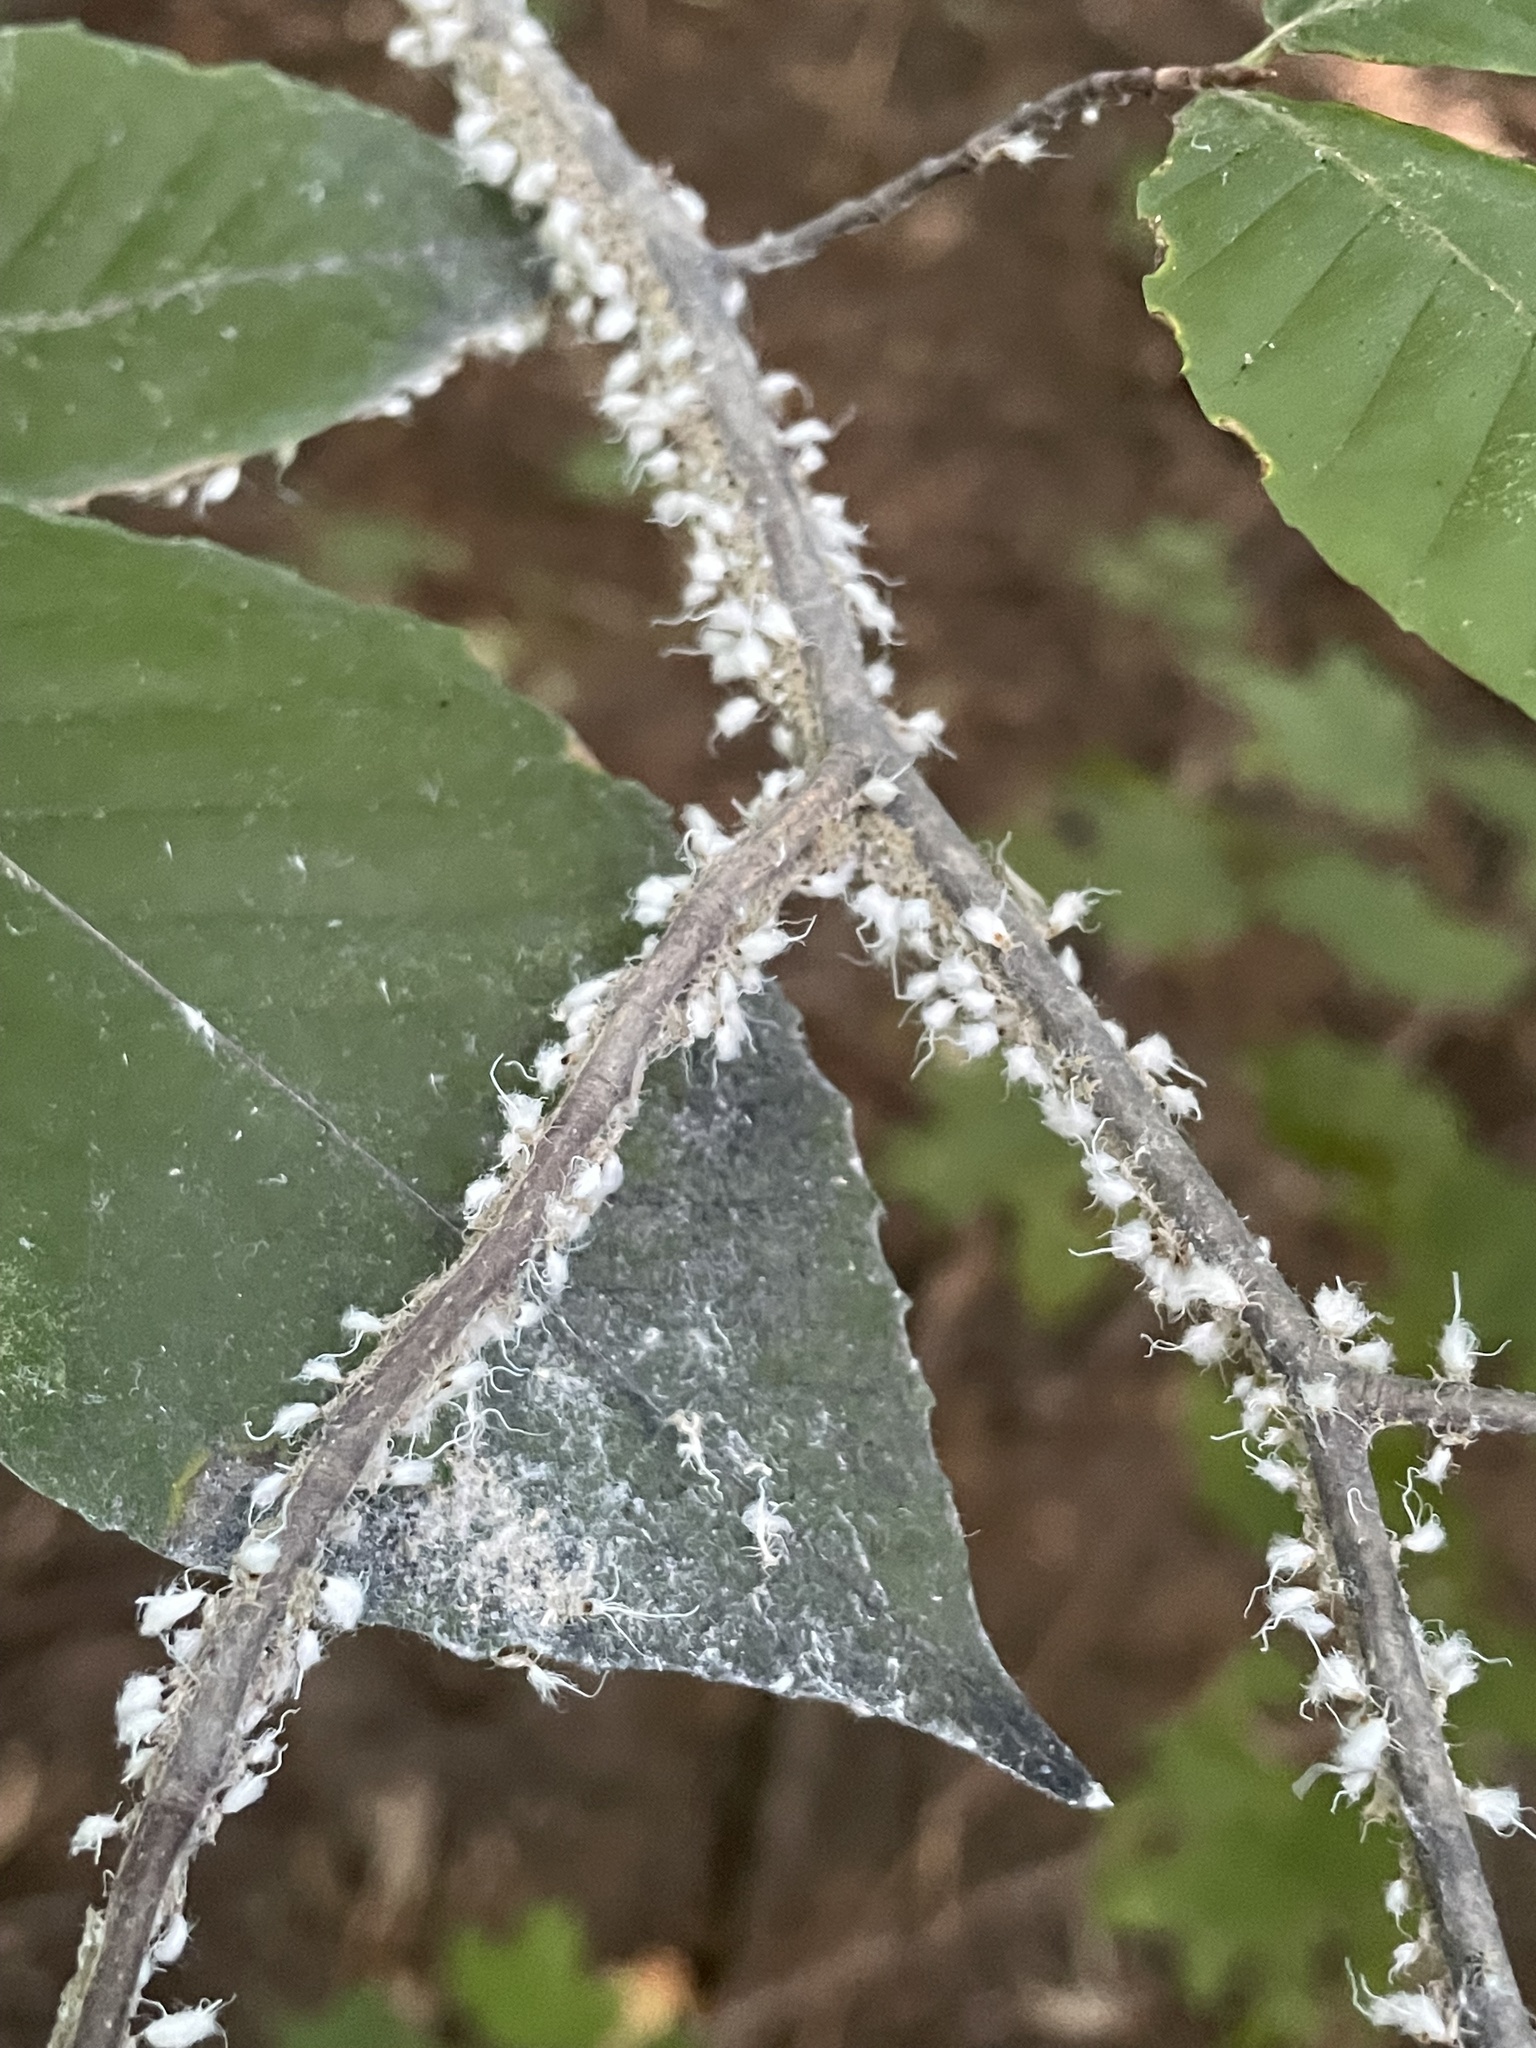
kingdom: Animalia
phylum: Arthropoda
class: Insecta
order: Hemiptera
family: Aphididae
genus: Grylloprociphilus
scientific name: Grylloprociphilus imbricator
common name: Beech blight aphid
